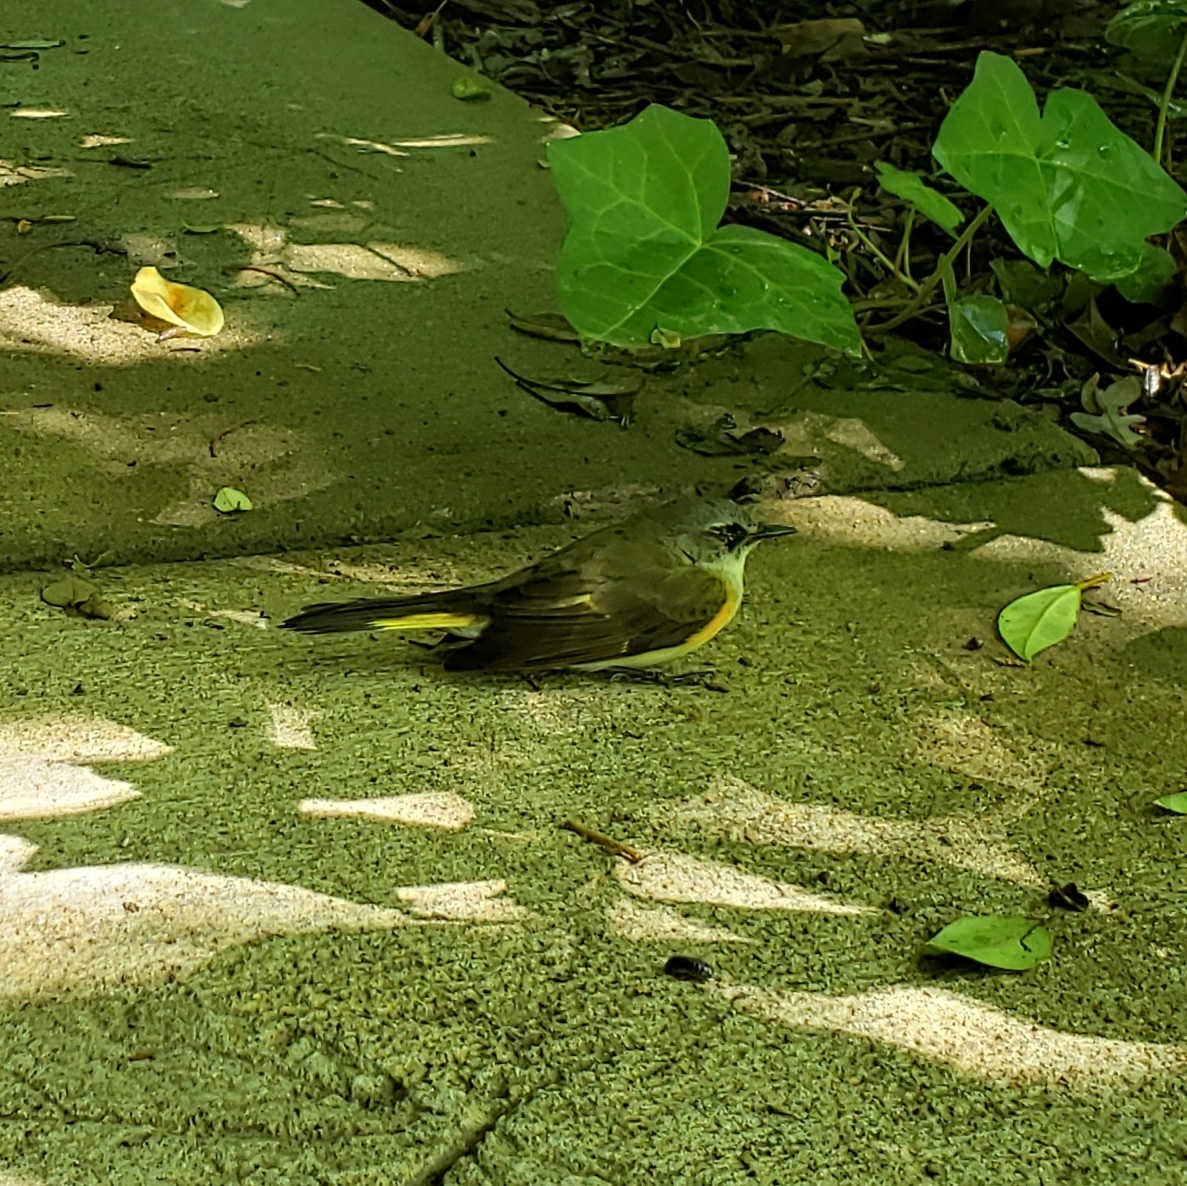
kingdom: Animalia
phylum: Chordata
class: Aves
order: Passeriformes
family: Parulidae
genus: Setophaga
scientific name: Setophaga ruticilla
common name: American redstart
